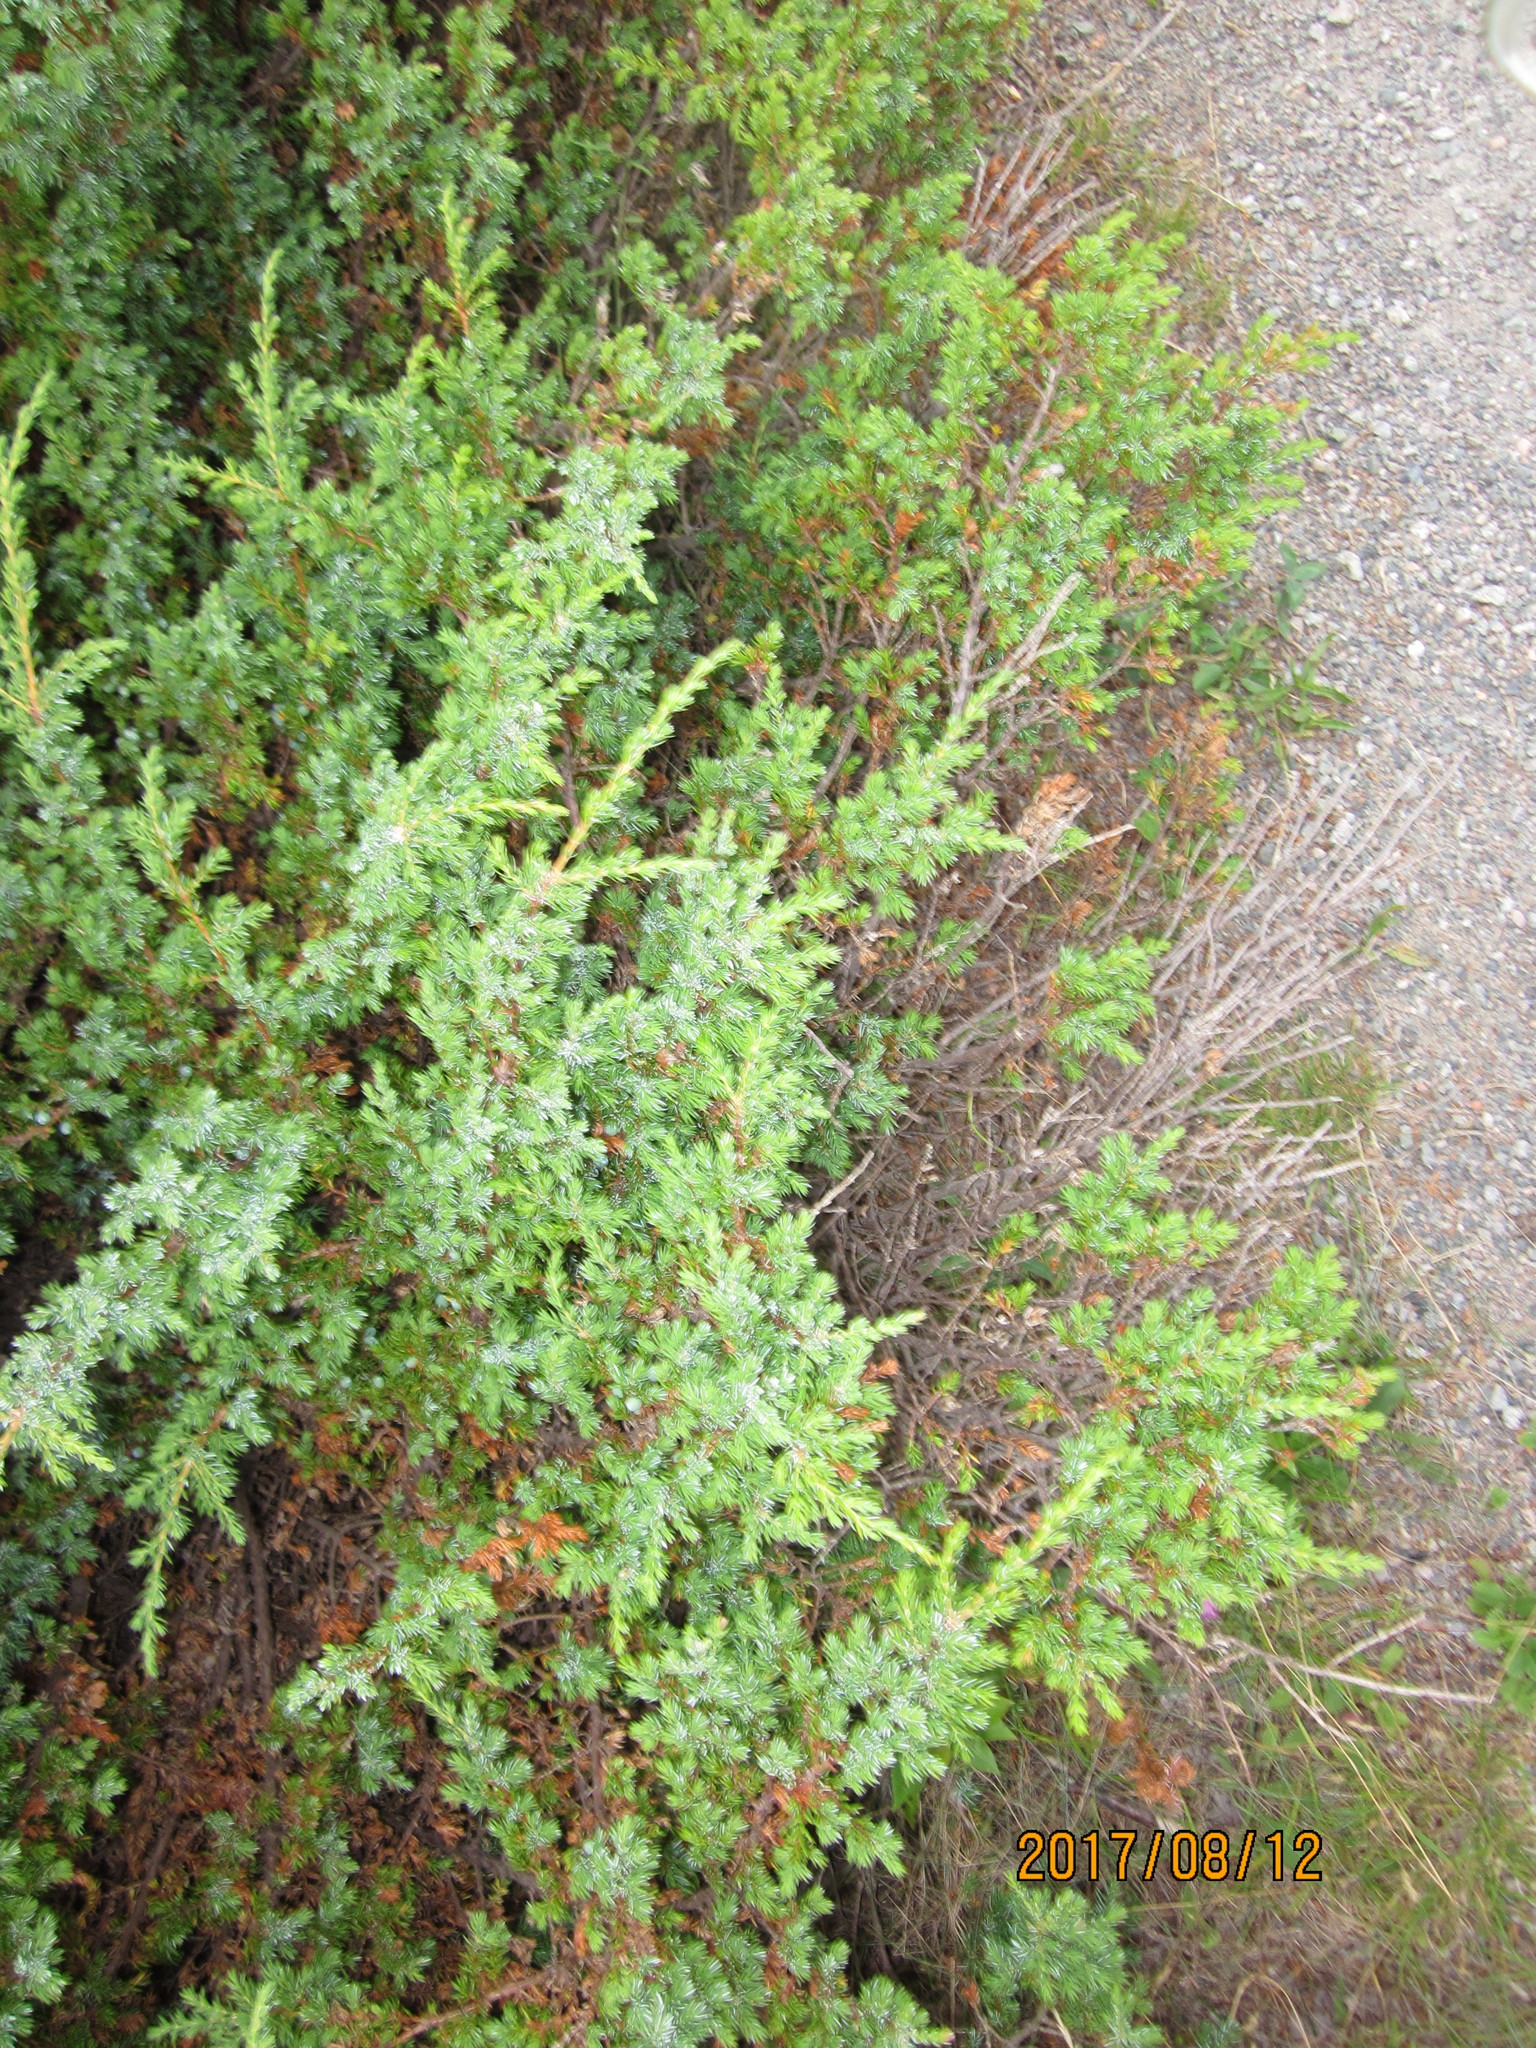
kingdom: Plantae
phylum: Tracheophyta
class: Pinopsida
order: Pinales
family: Cupressaceae
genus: Juniperus
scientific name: Juniperus communis
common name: Common juniper
